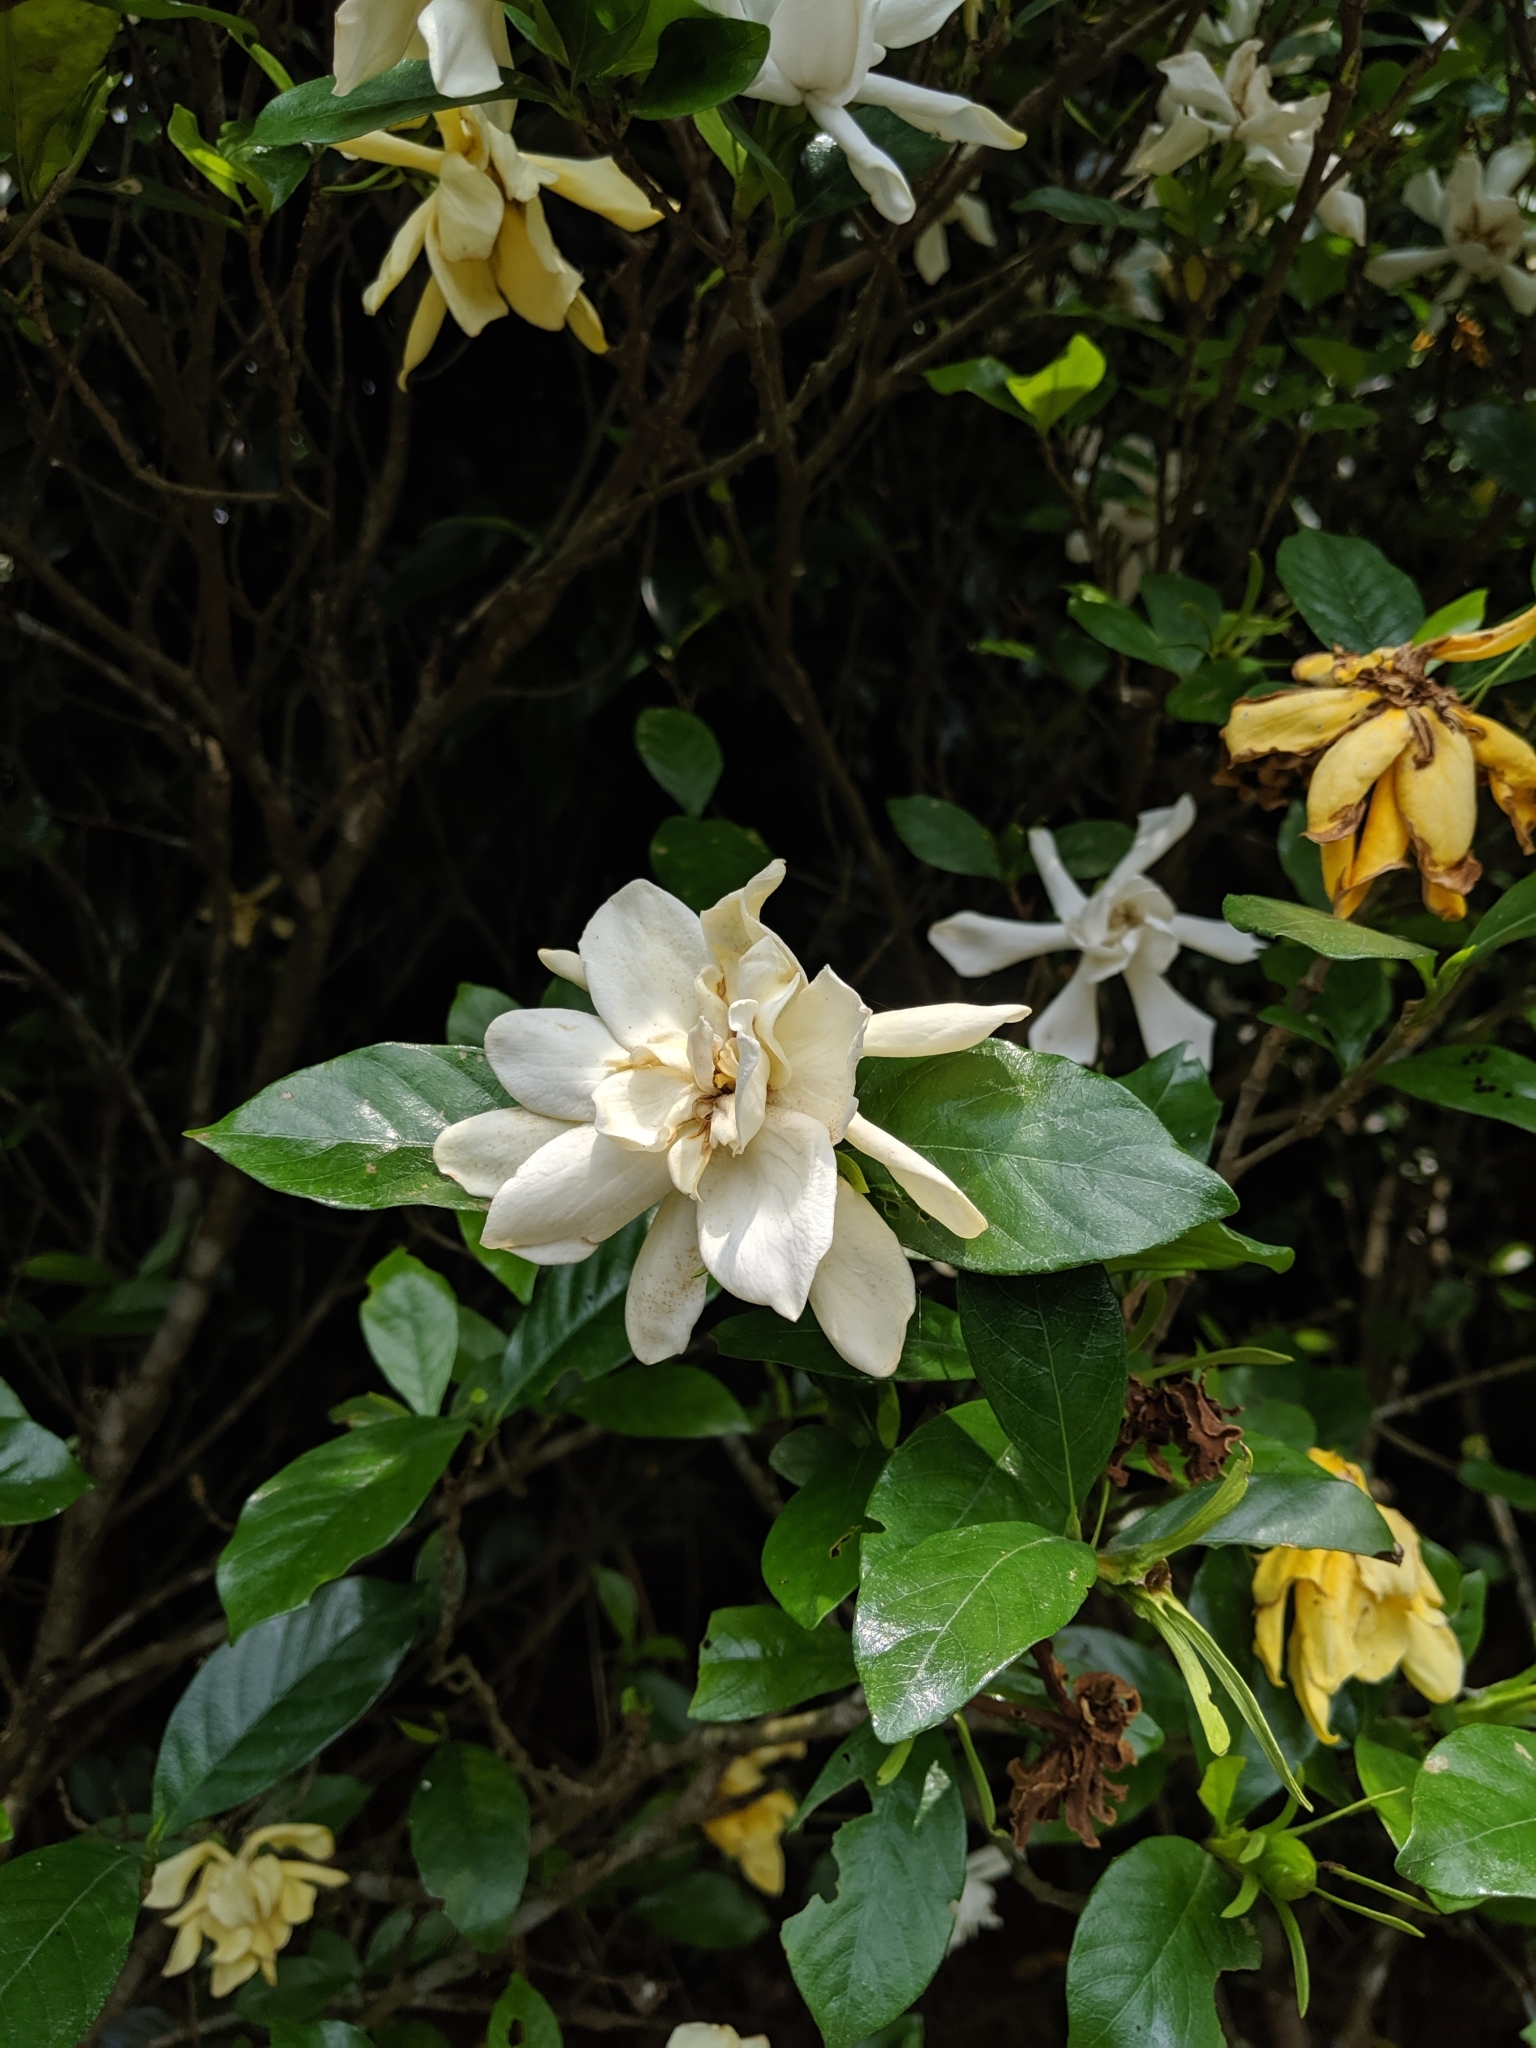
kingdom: Plantae
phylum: Tracheophyta
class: Magnoliopsida
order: Gentianales
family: Rubiaceae
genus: Gardenia
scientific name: Gardenia jasminoides
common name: Cape-jasmine
